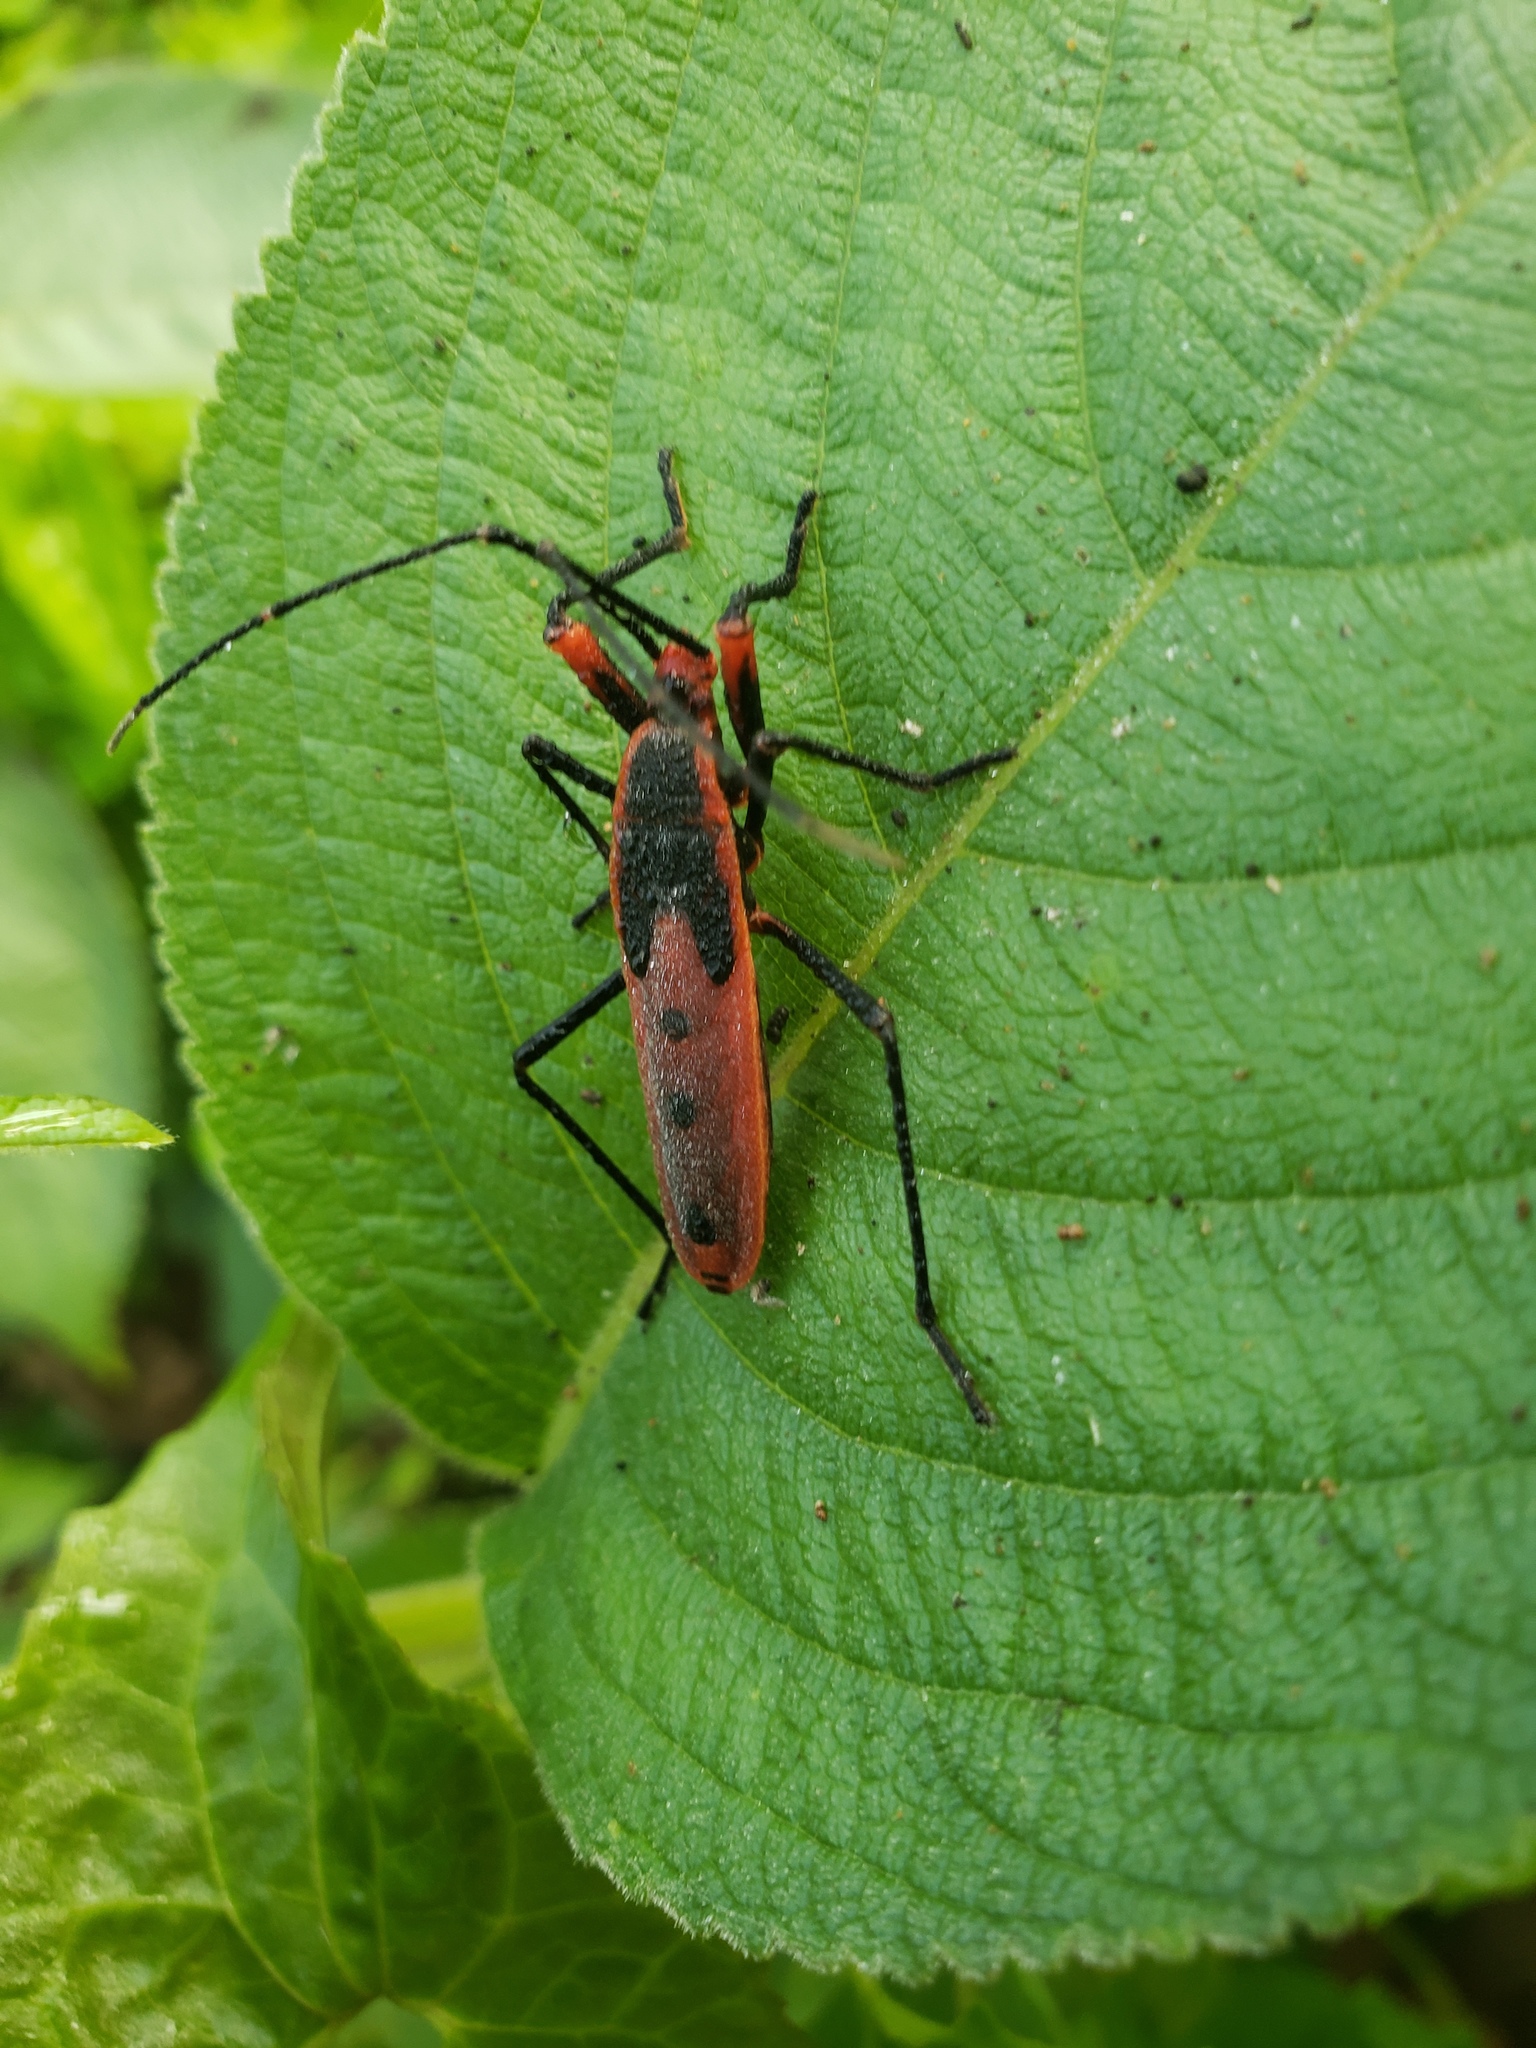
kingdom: Animalia
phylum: Arthropoda
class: Insecta
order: Hemiptera
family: Largidae
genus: Macrocheraia
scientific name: Macrocheraia grandis
